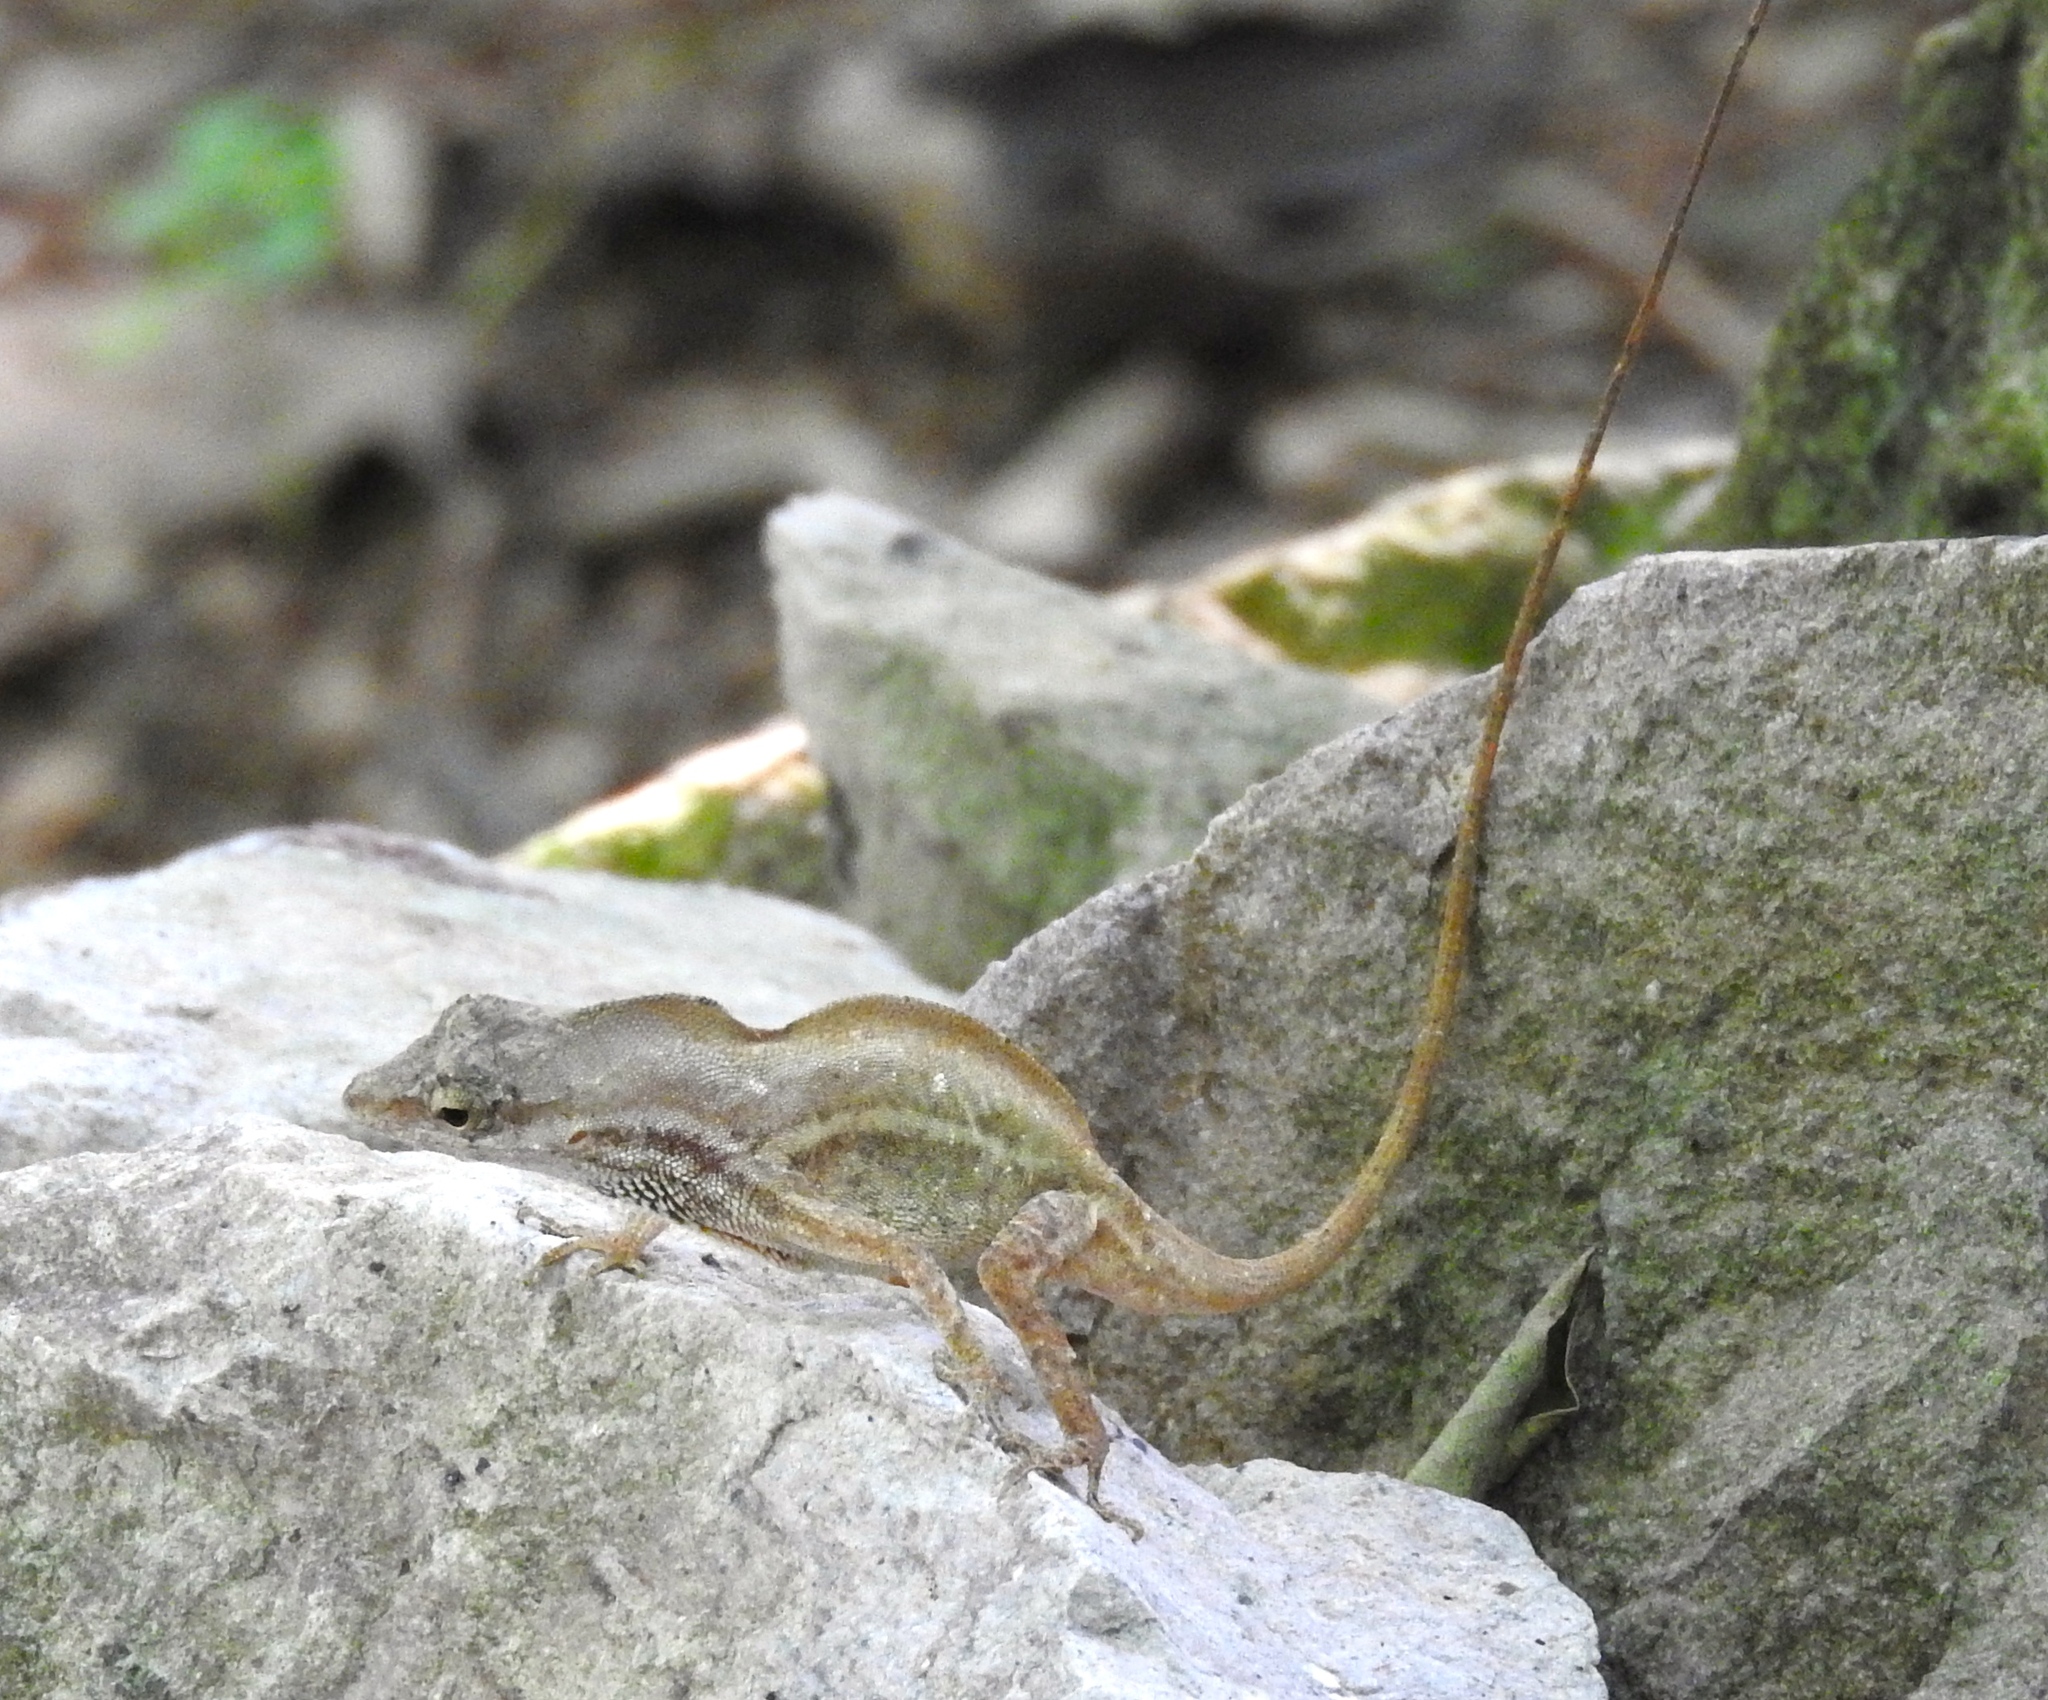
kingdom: Animalia
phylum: Chordata
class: Squamata
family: Dactyloidae
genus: Anolis
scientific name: Anolis nebulosus
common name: Clouded anole
